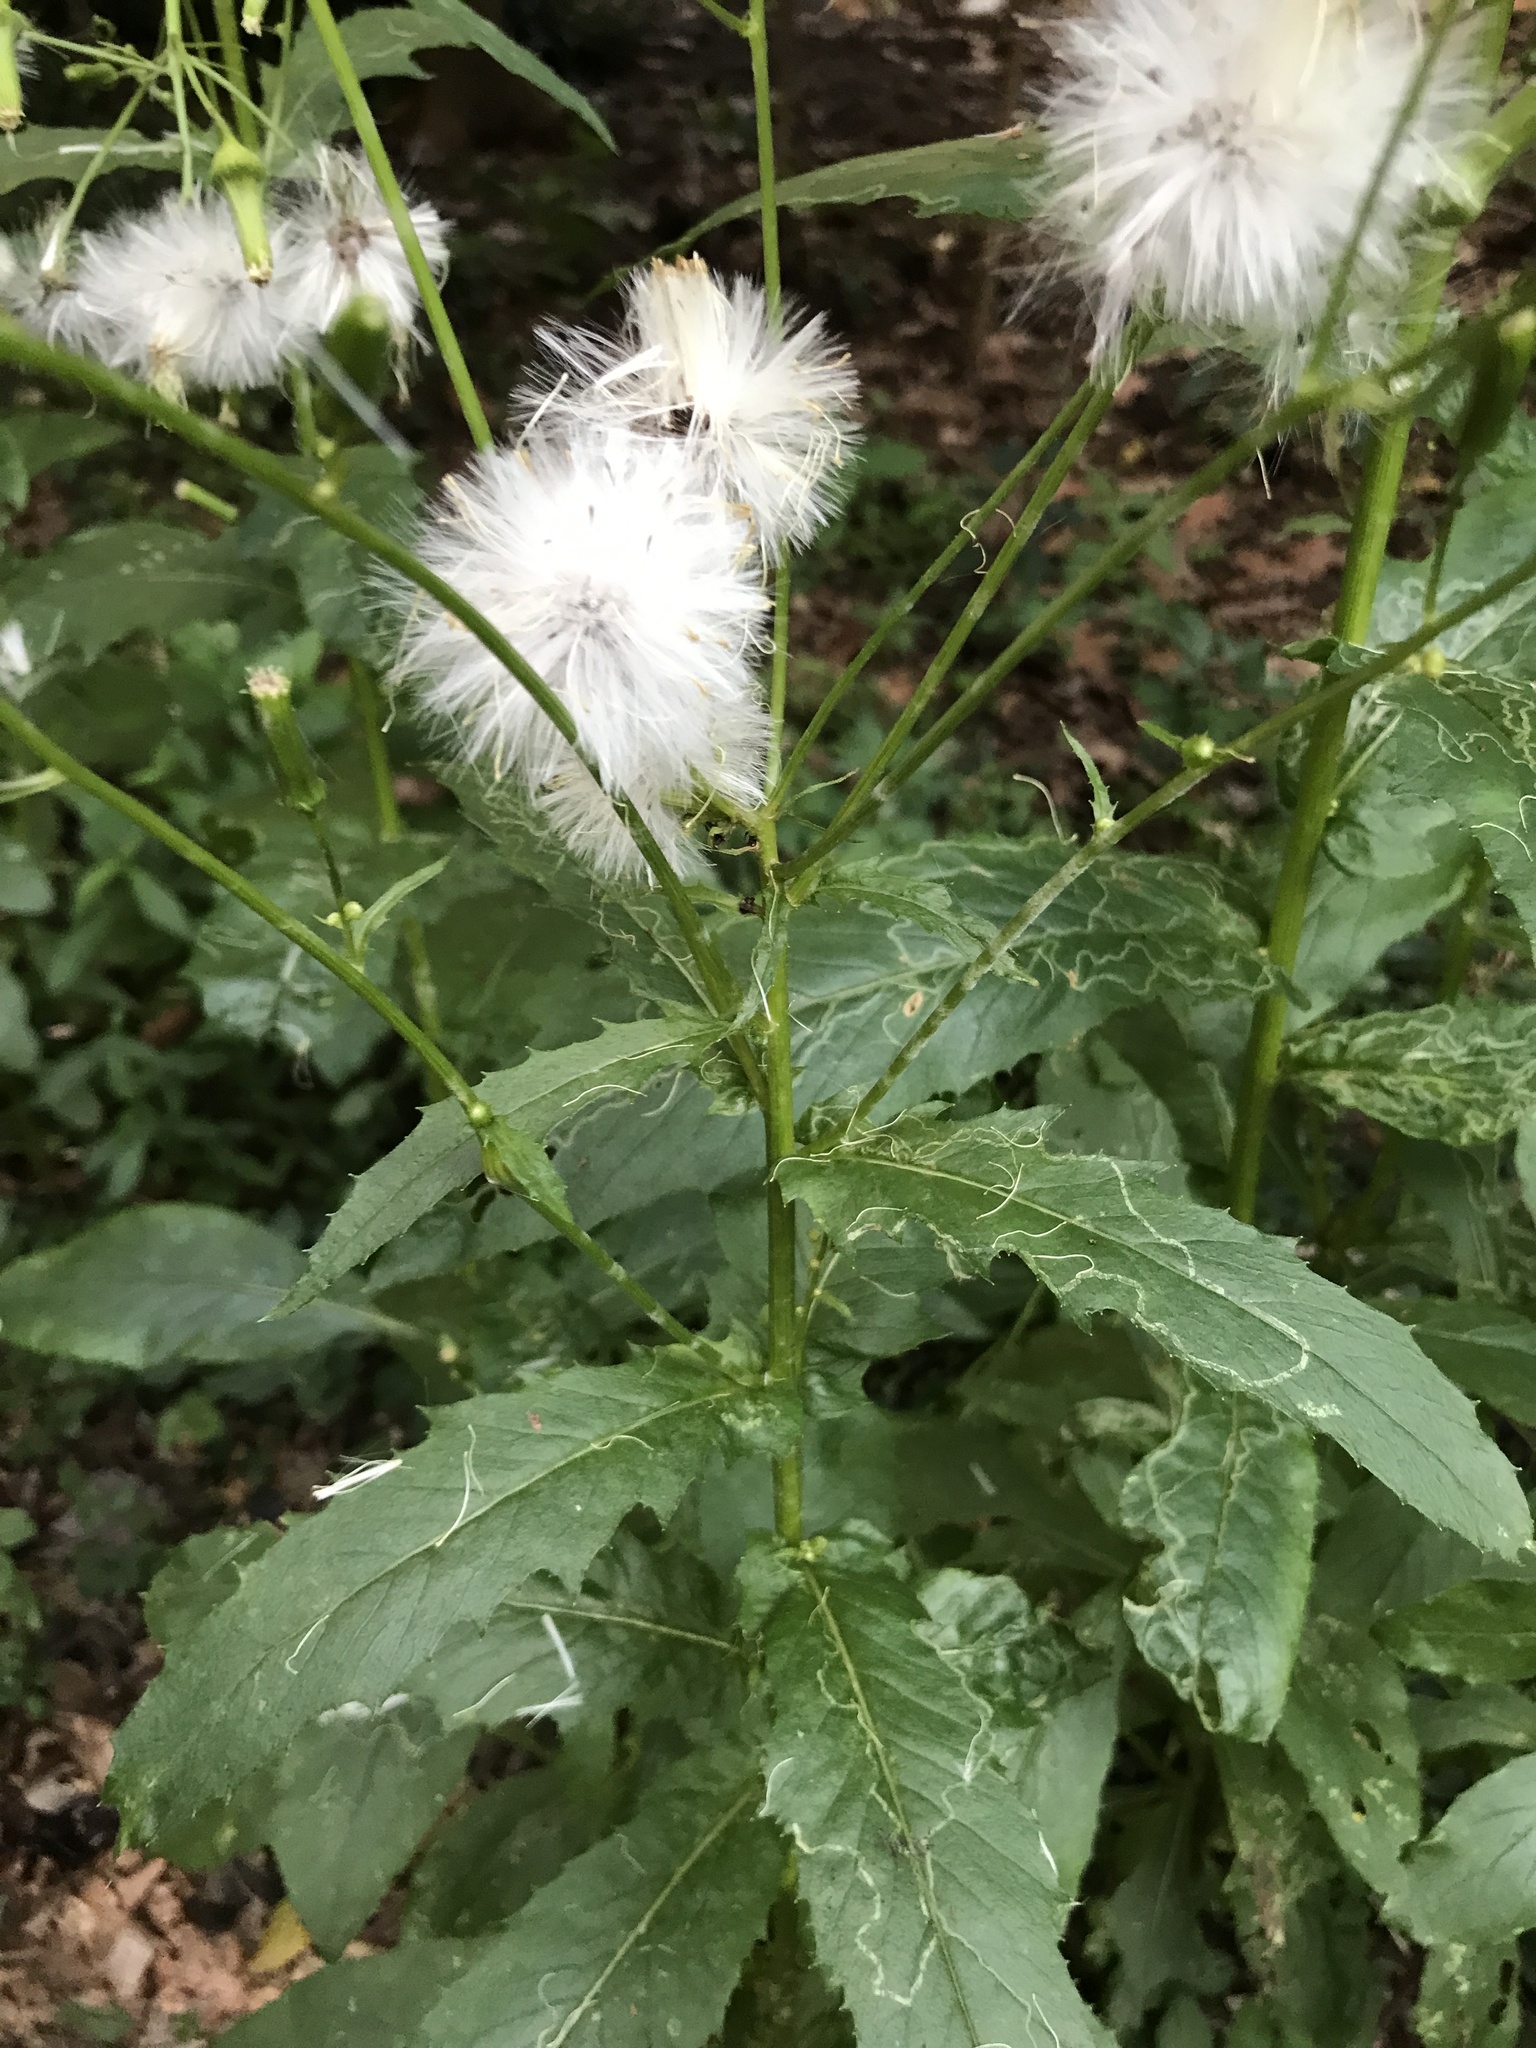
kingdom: Plantae
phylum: Tracheophyta
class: Magnoliopsida
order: Asterales
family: Asteraceae
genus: Erechtites
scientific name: Erechtites hieraciifolius
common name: American burnweed
